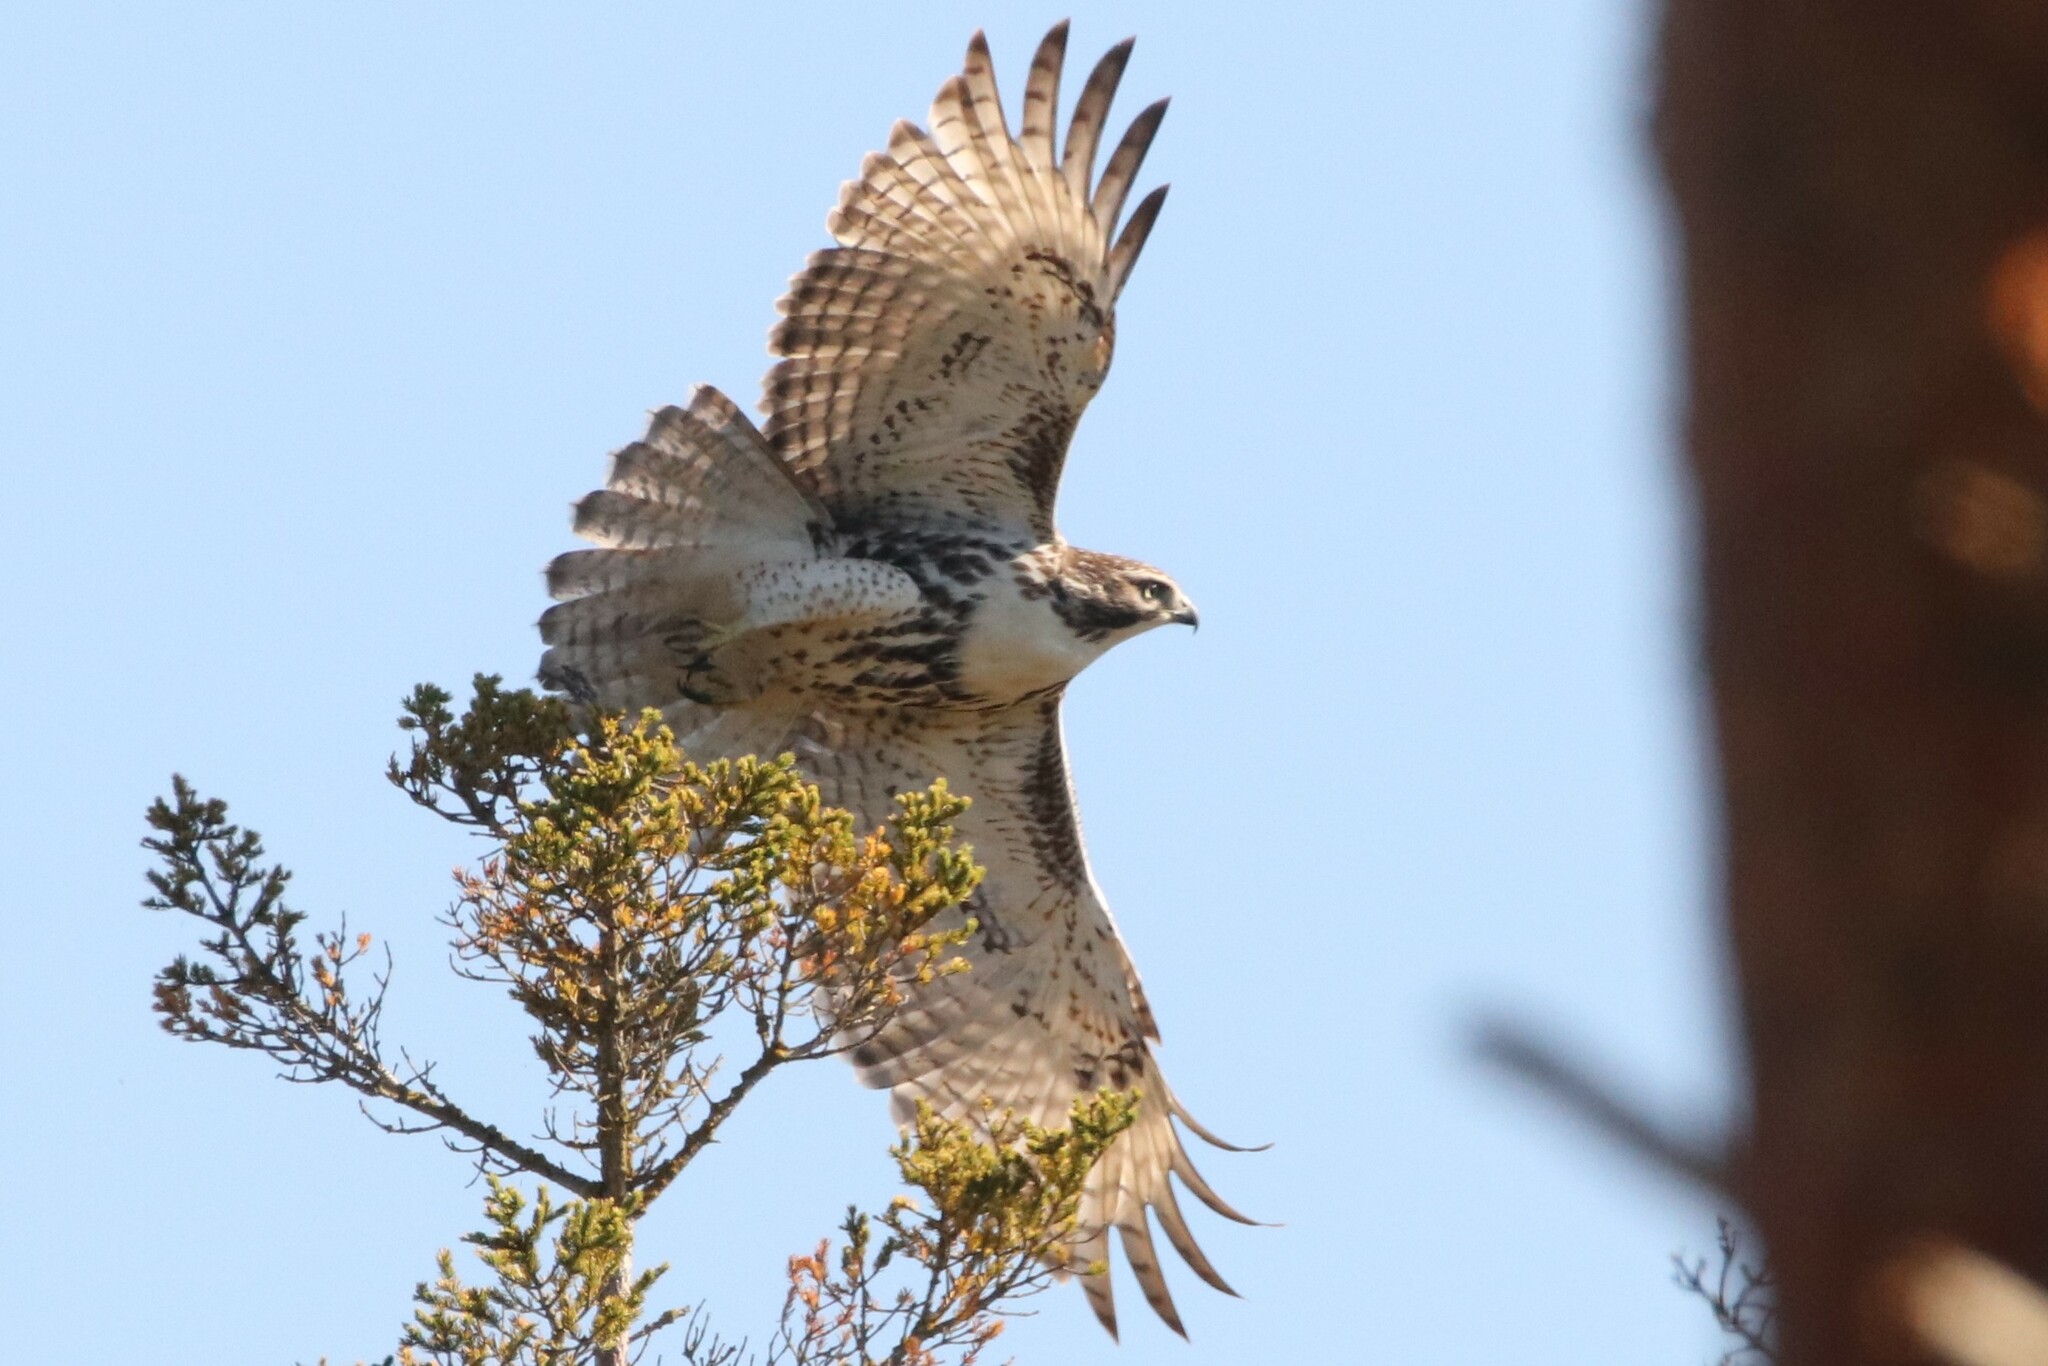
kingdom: Animalia
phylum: Chordata
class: Aves
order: Accipitriformes
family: Accipitridae
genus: Buteo
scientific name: Buteo jamaicensis
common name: Red-tailed hawk
